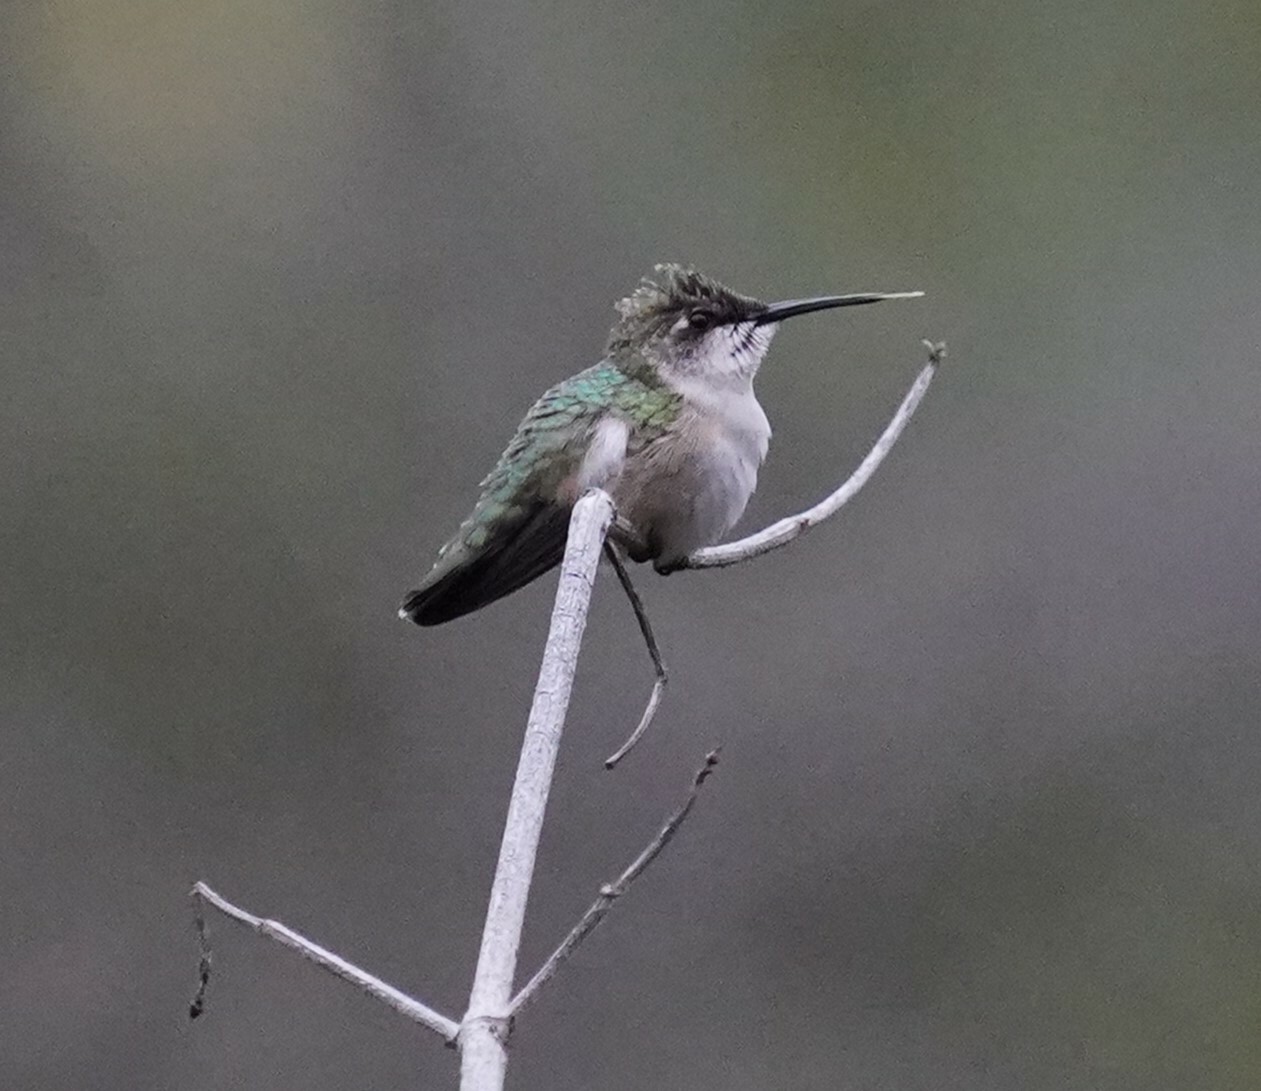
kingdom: Animalia
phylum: Chordata
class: Aves
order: Apodiformes
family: Trochilidae
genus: Archilochus
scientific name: Archilochus colubris
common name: Ruby-throated hummingbird
